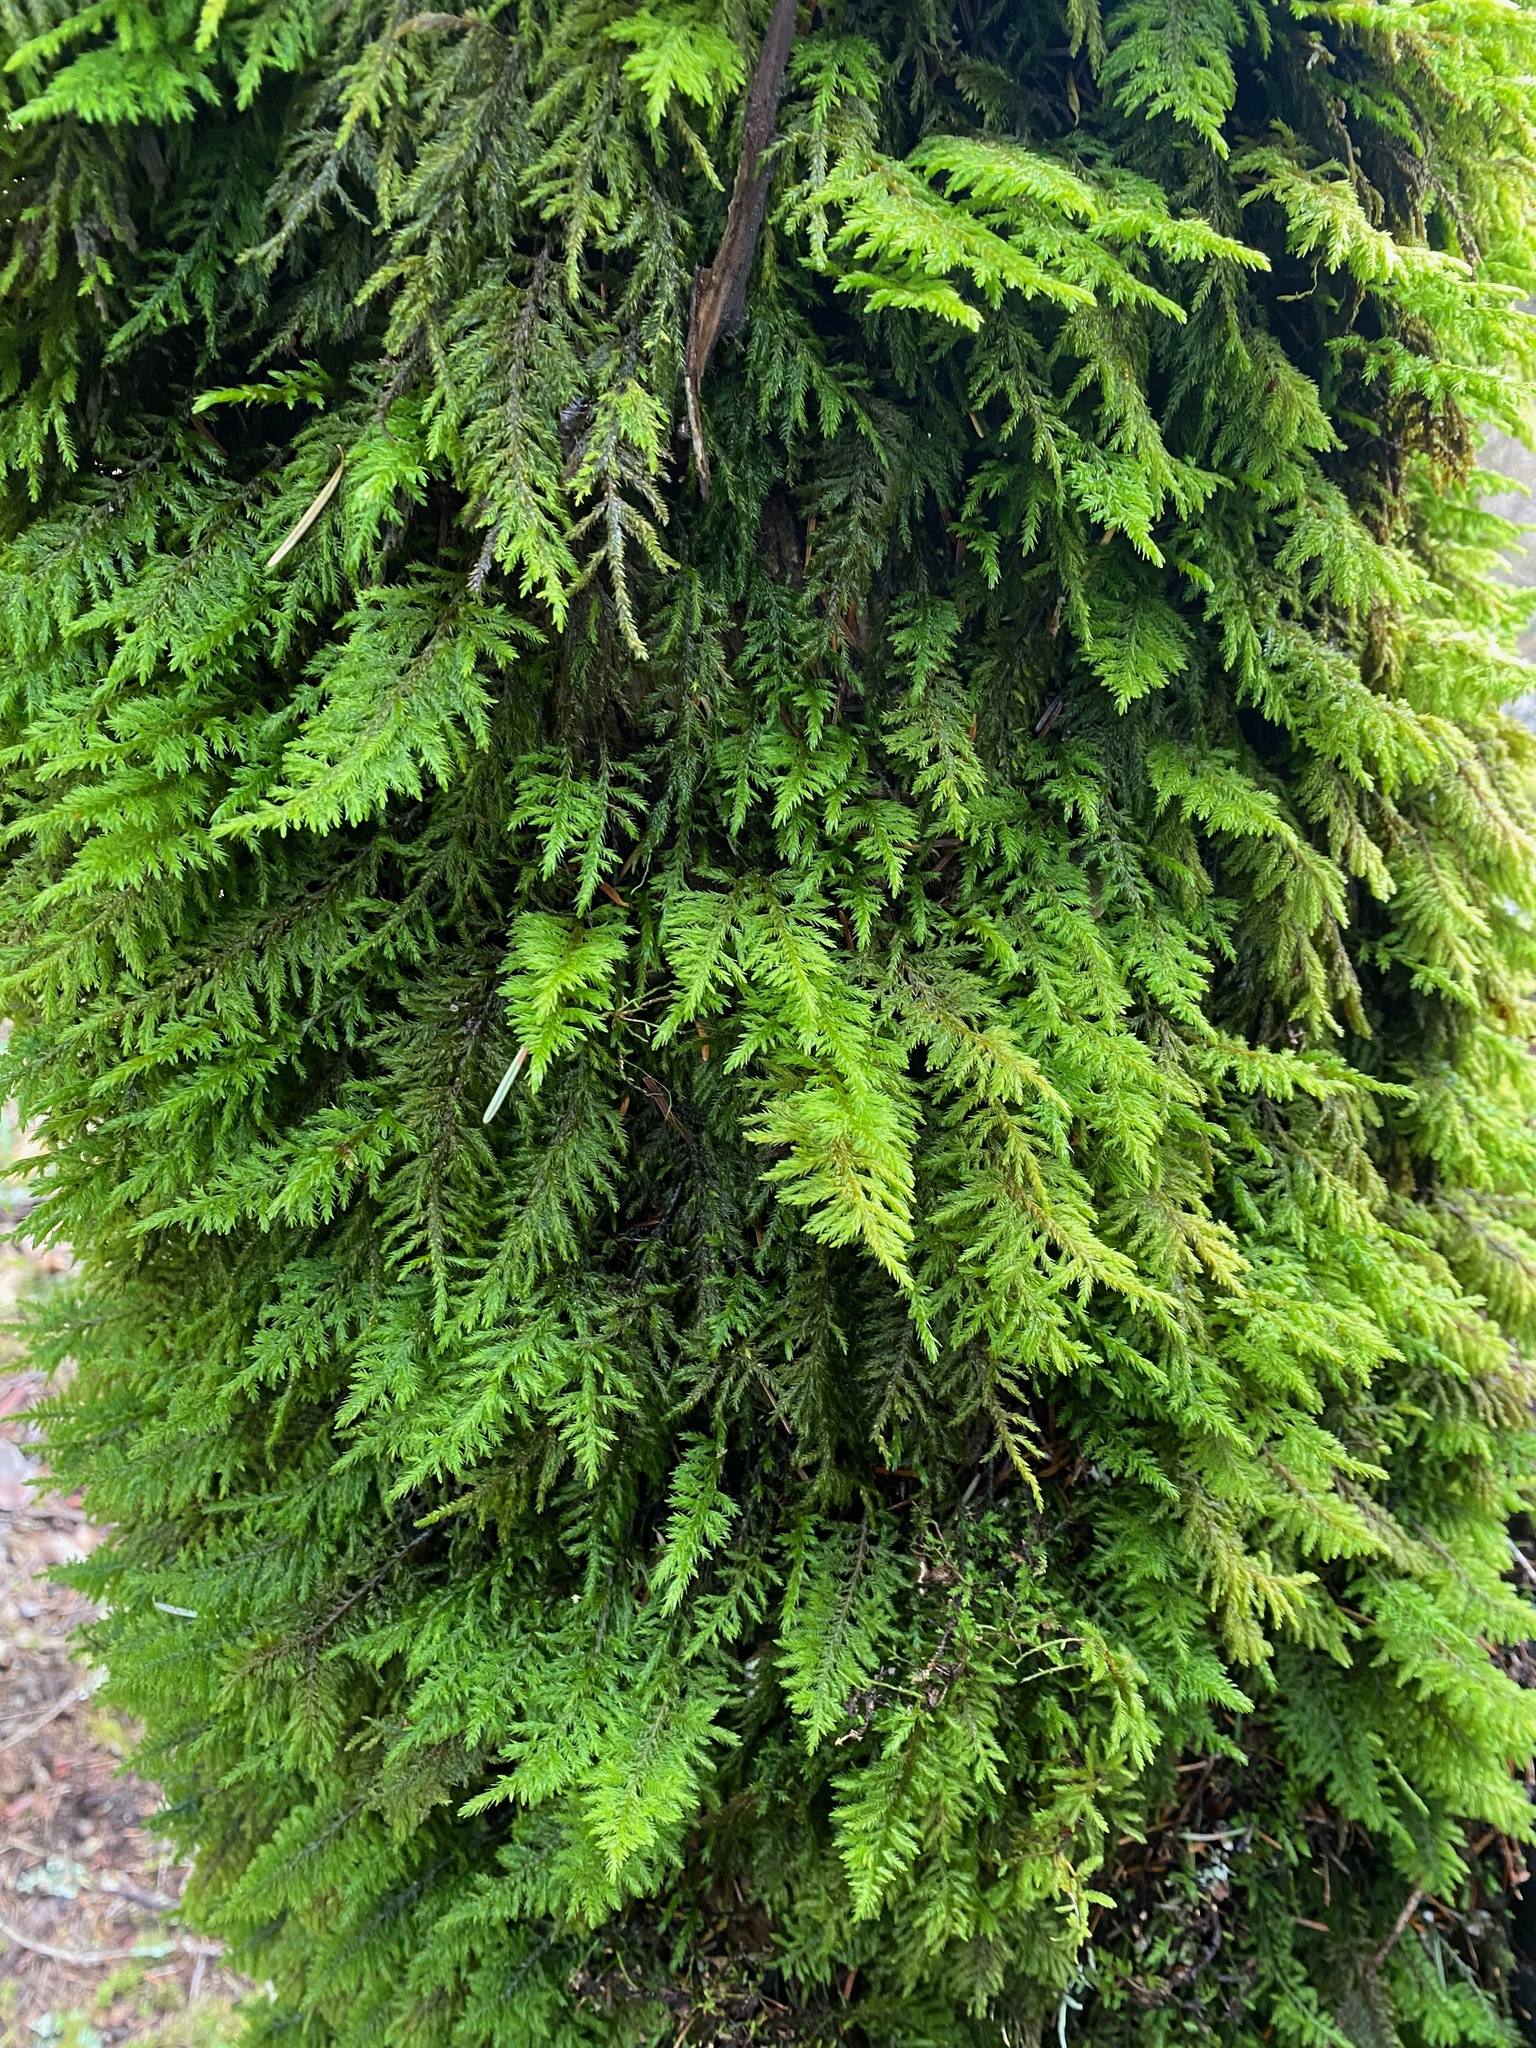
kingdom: Plantae
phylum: Bryophyta
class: Bryopsida
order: Hypnales
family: Cryphaeaceae
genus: Dendroalsia
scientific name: Dendroalsia abietina
